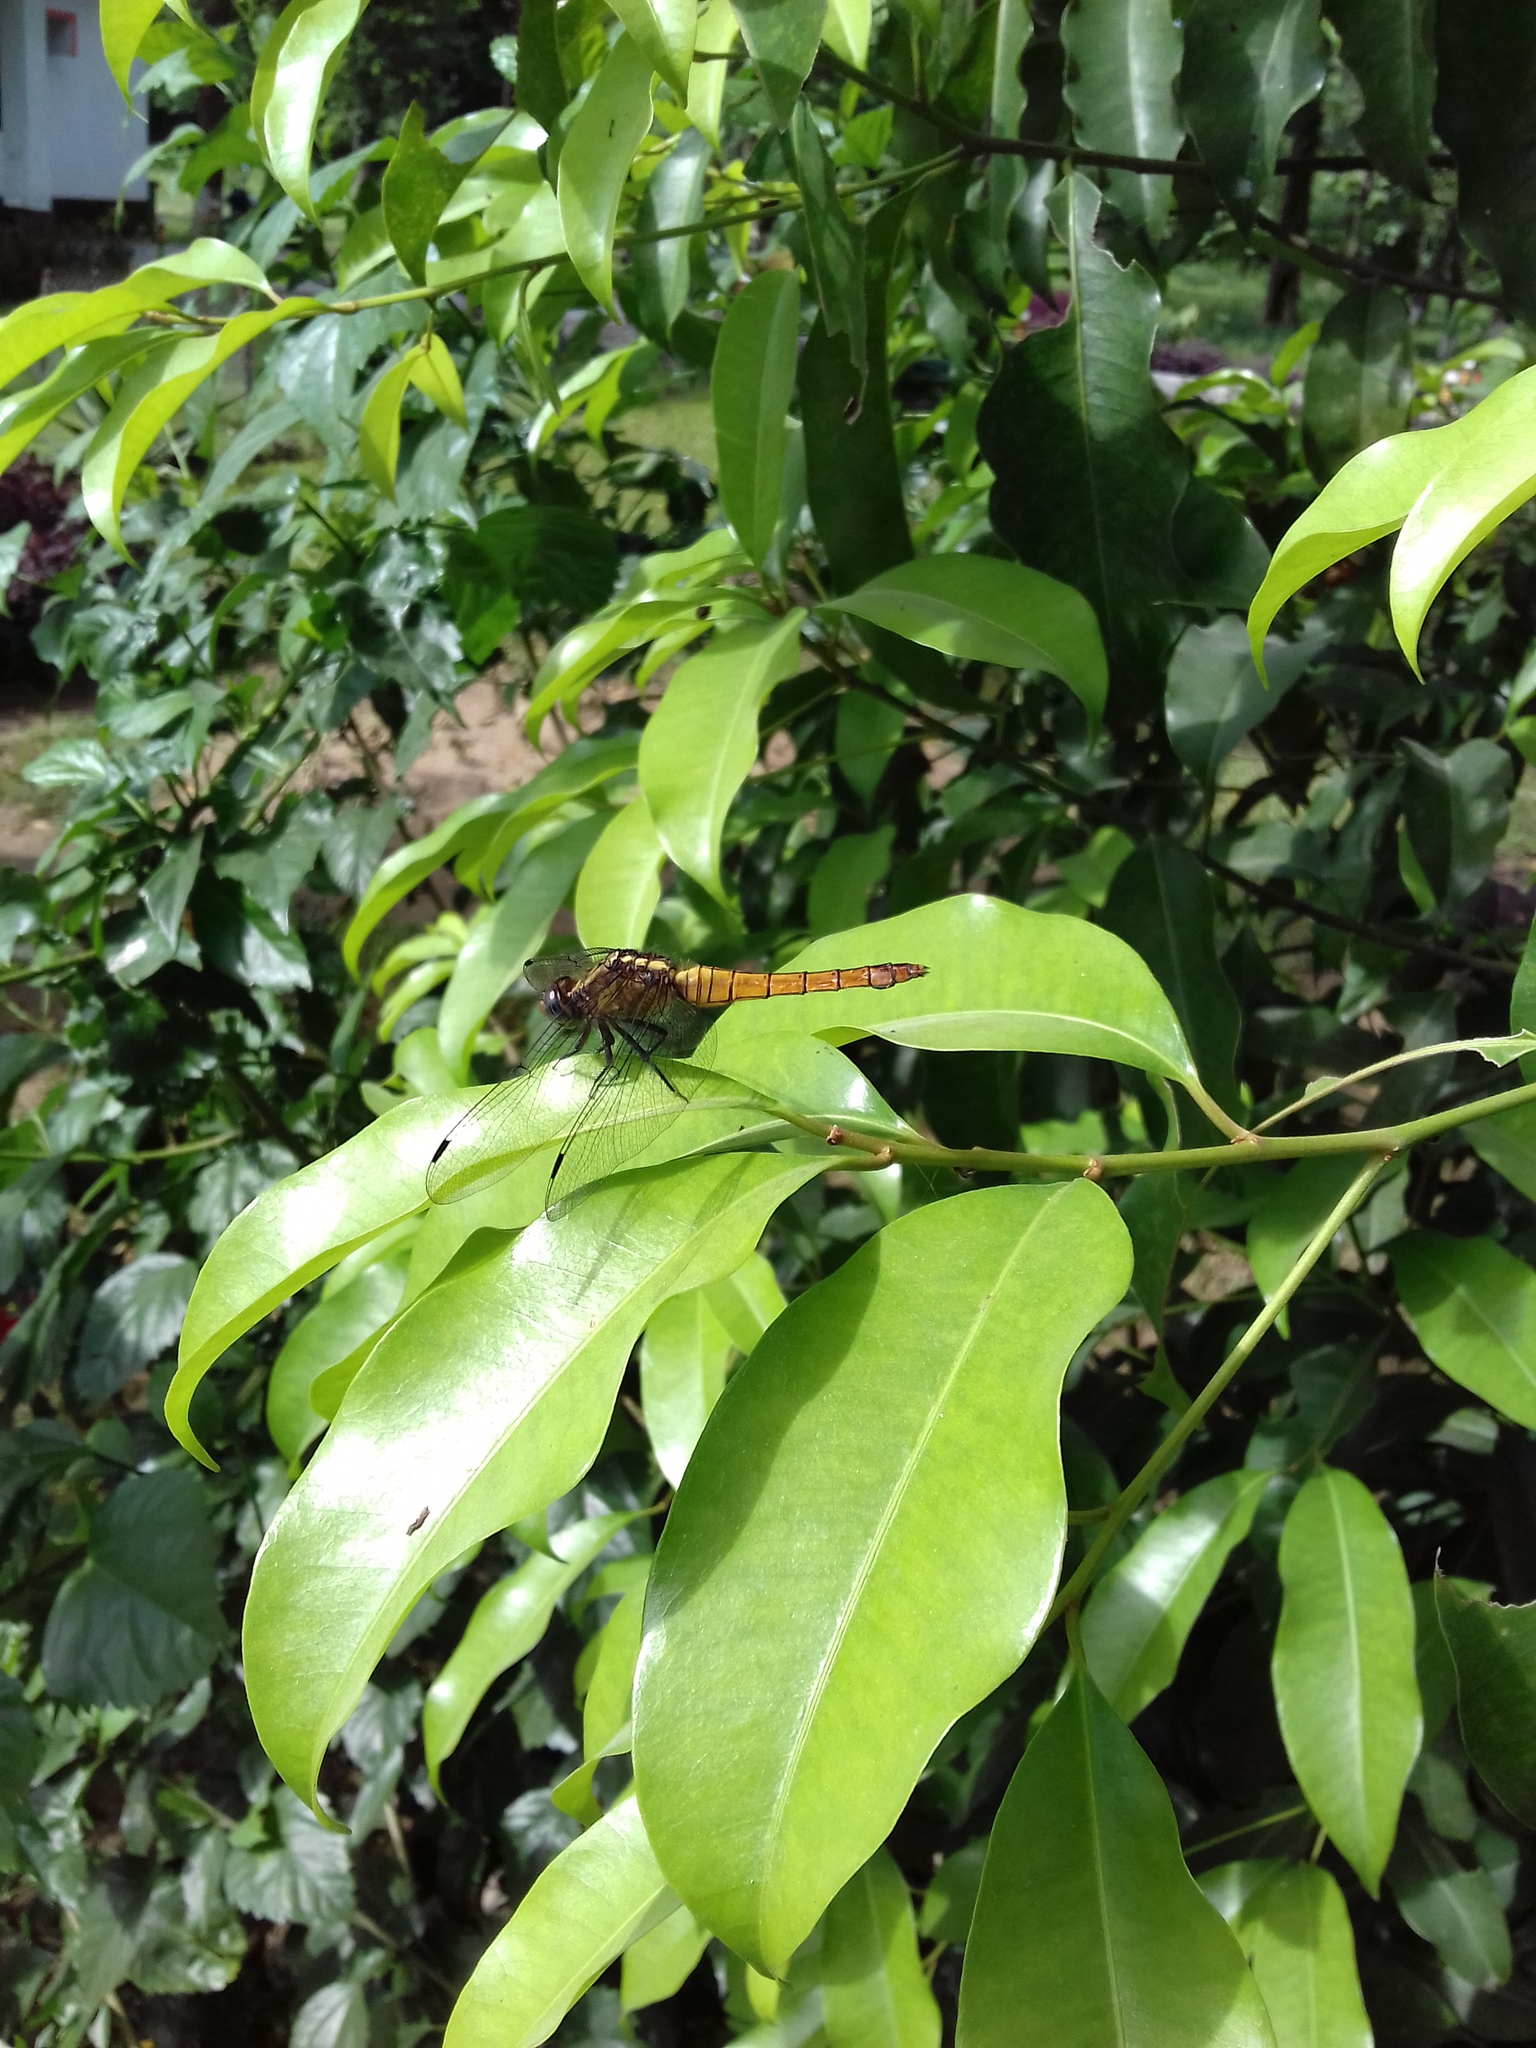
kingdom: Animalia
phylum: Arthropoda
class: Insecta
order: Odonata
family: Libellulidae
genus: Orthetrum
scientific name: Orthetrum pruinosum
